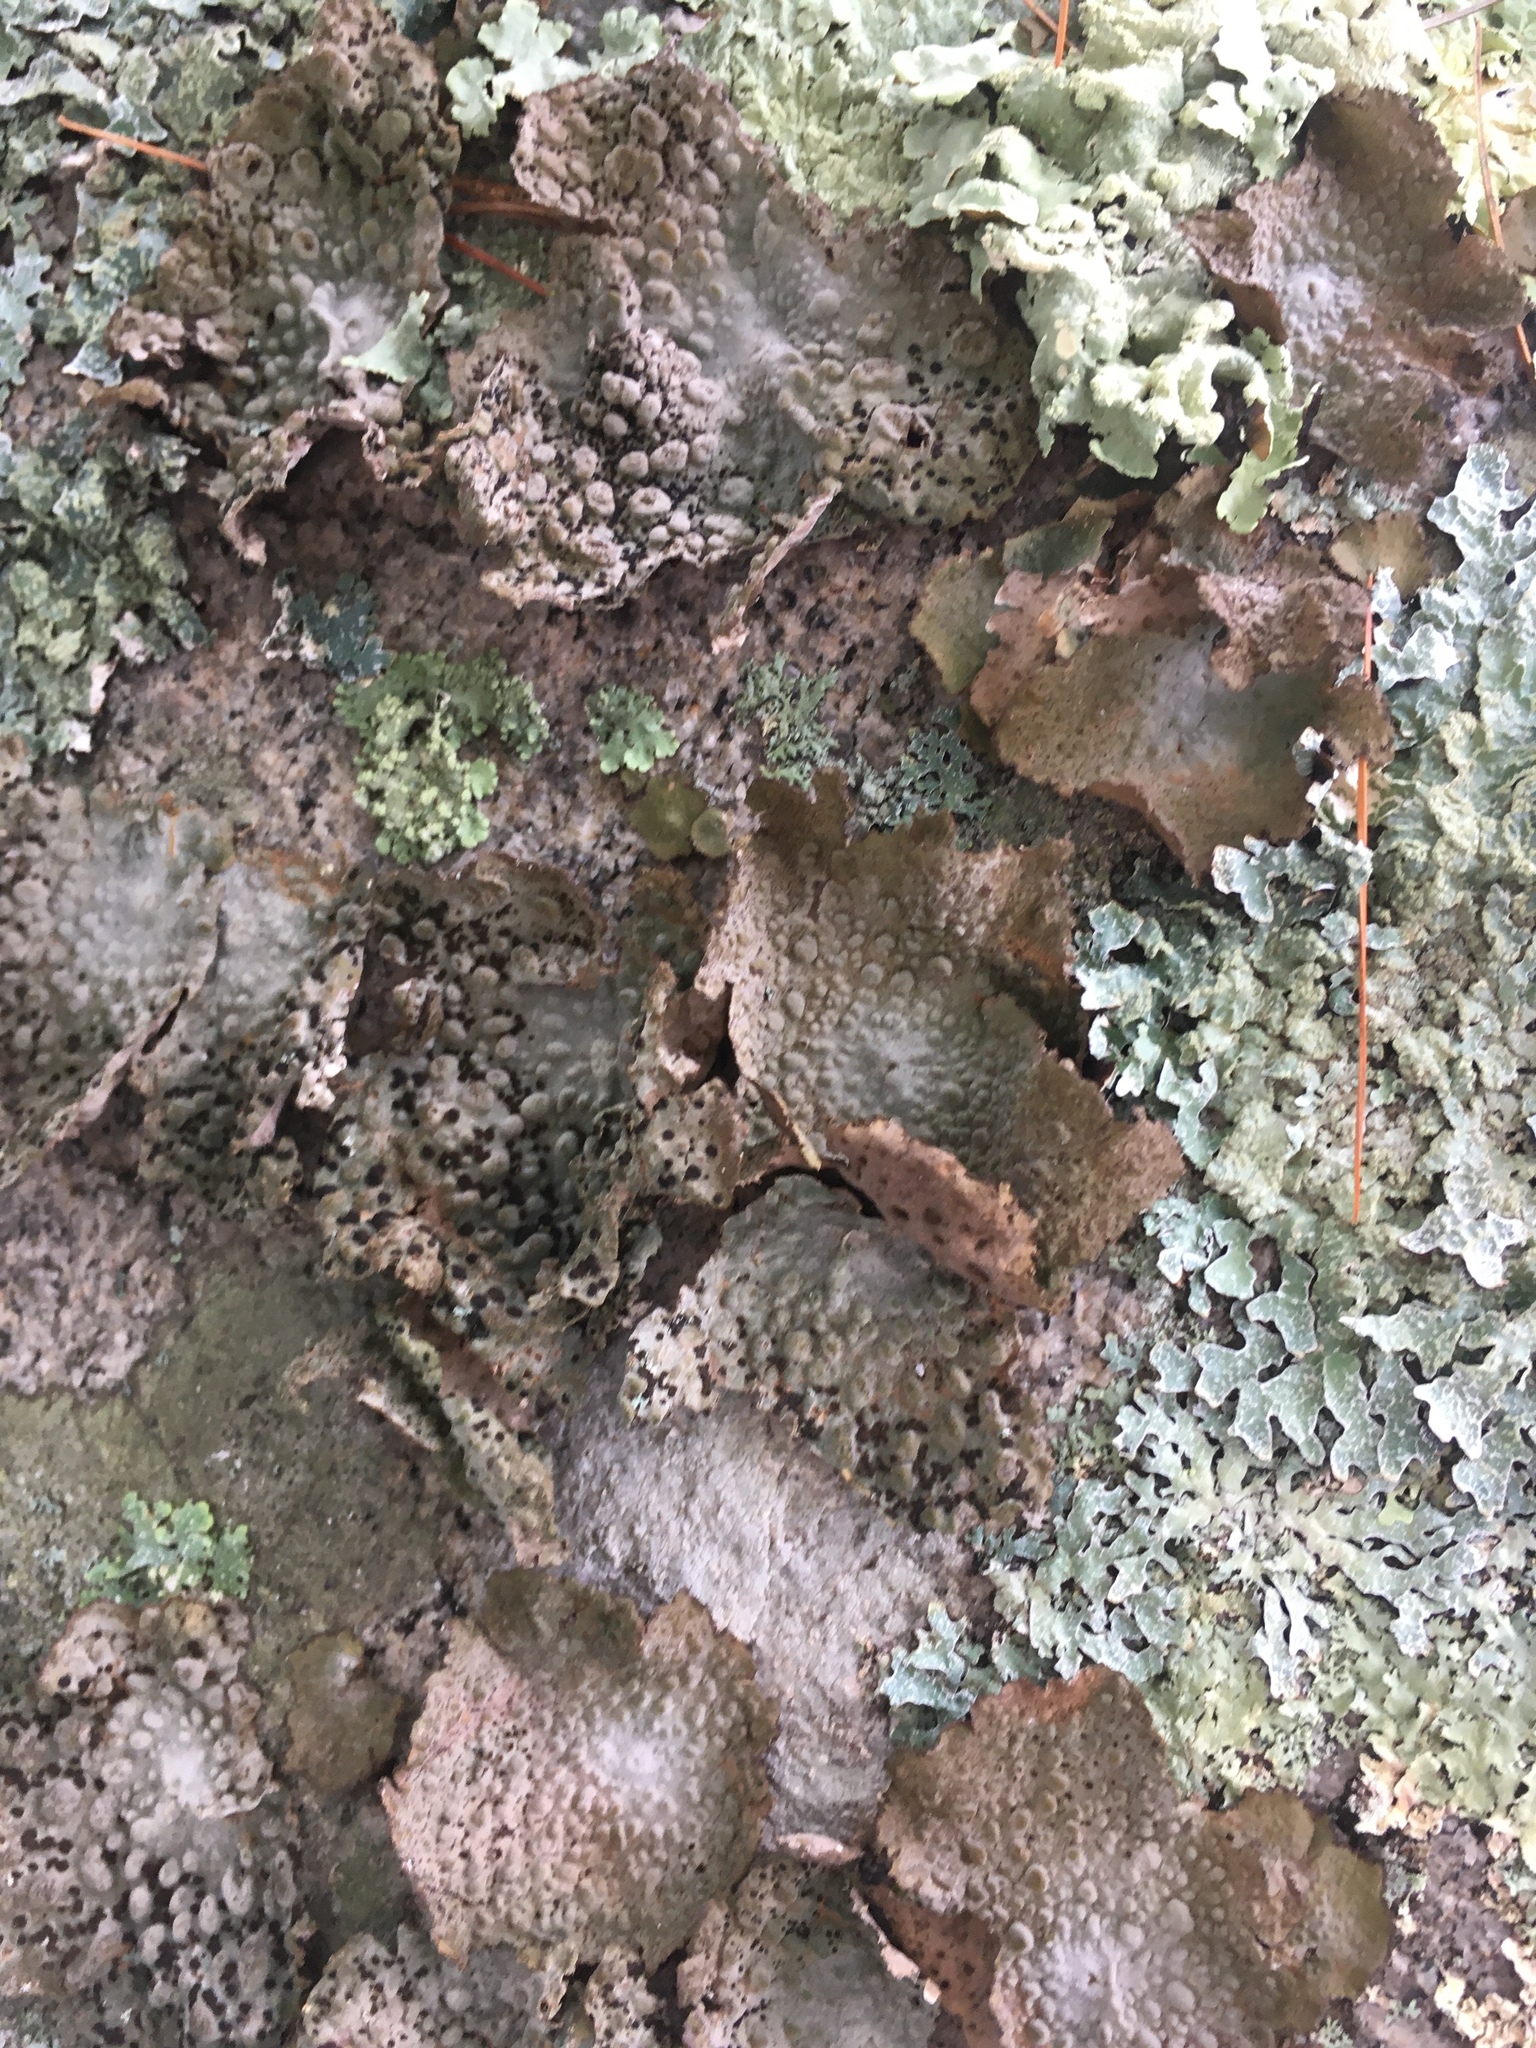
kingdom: Fungi
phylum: Ascomycota
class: Lecanoromycetes
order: Umbilicariales
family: Umbilicariaceae
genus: Lasallia
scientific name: Lasallia papulosa
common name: Common toadskin lichen
